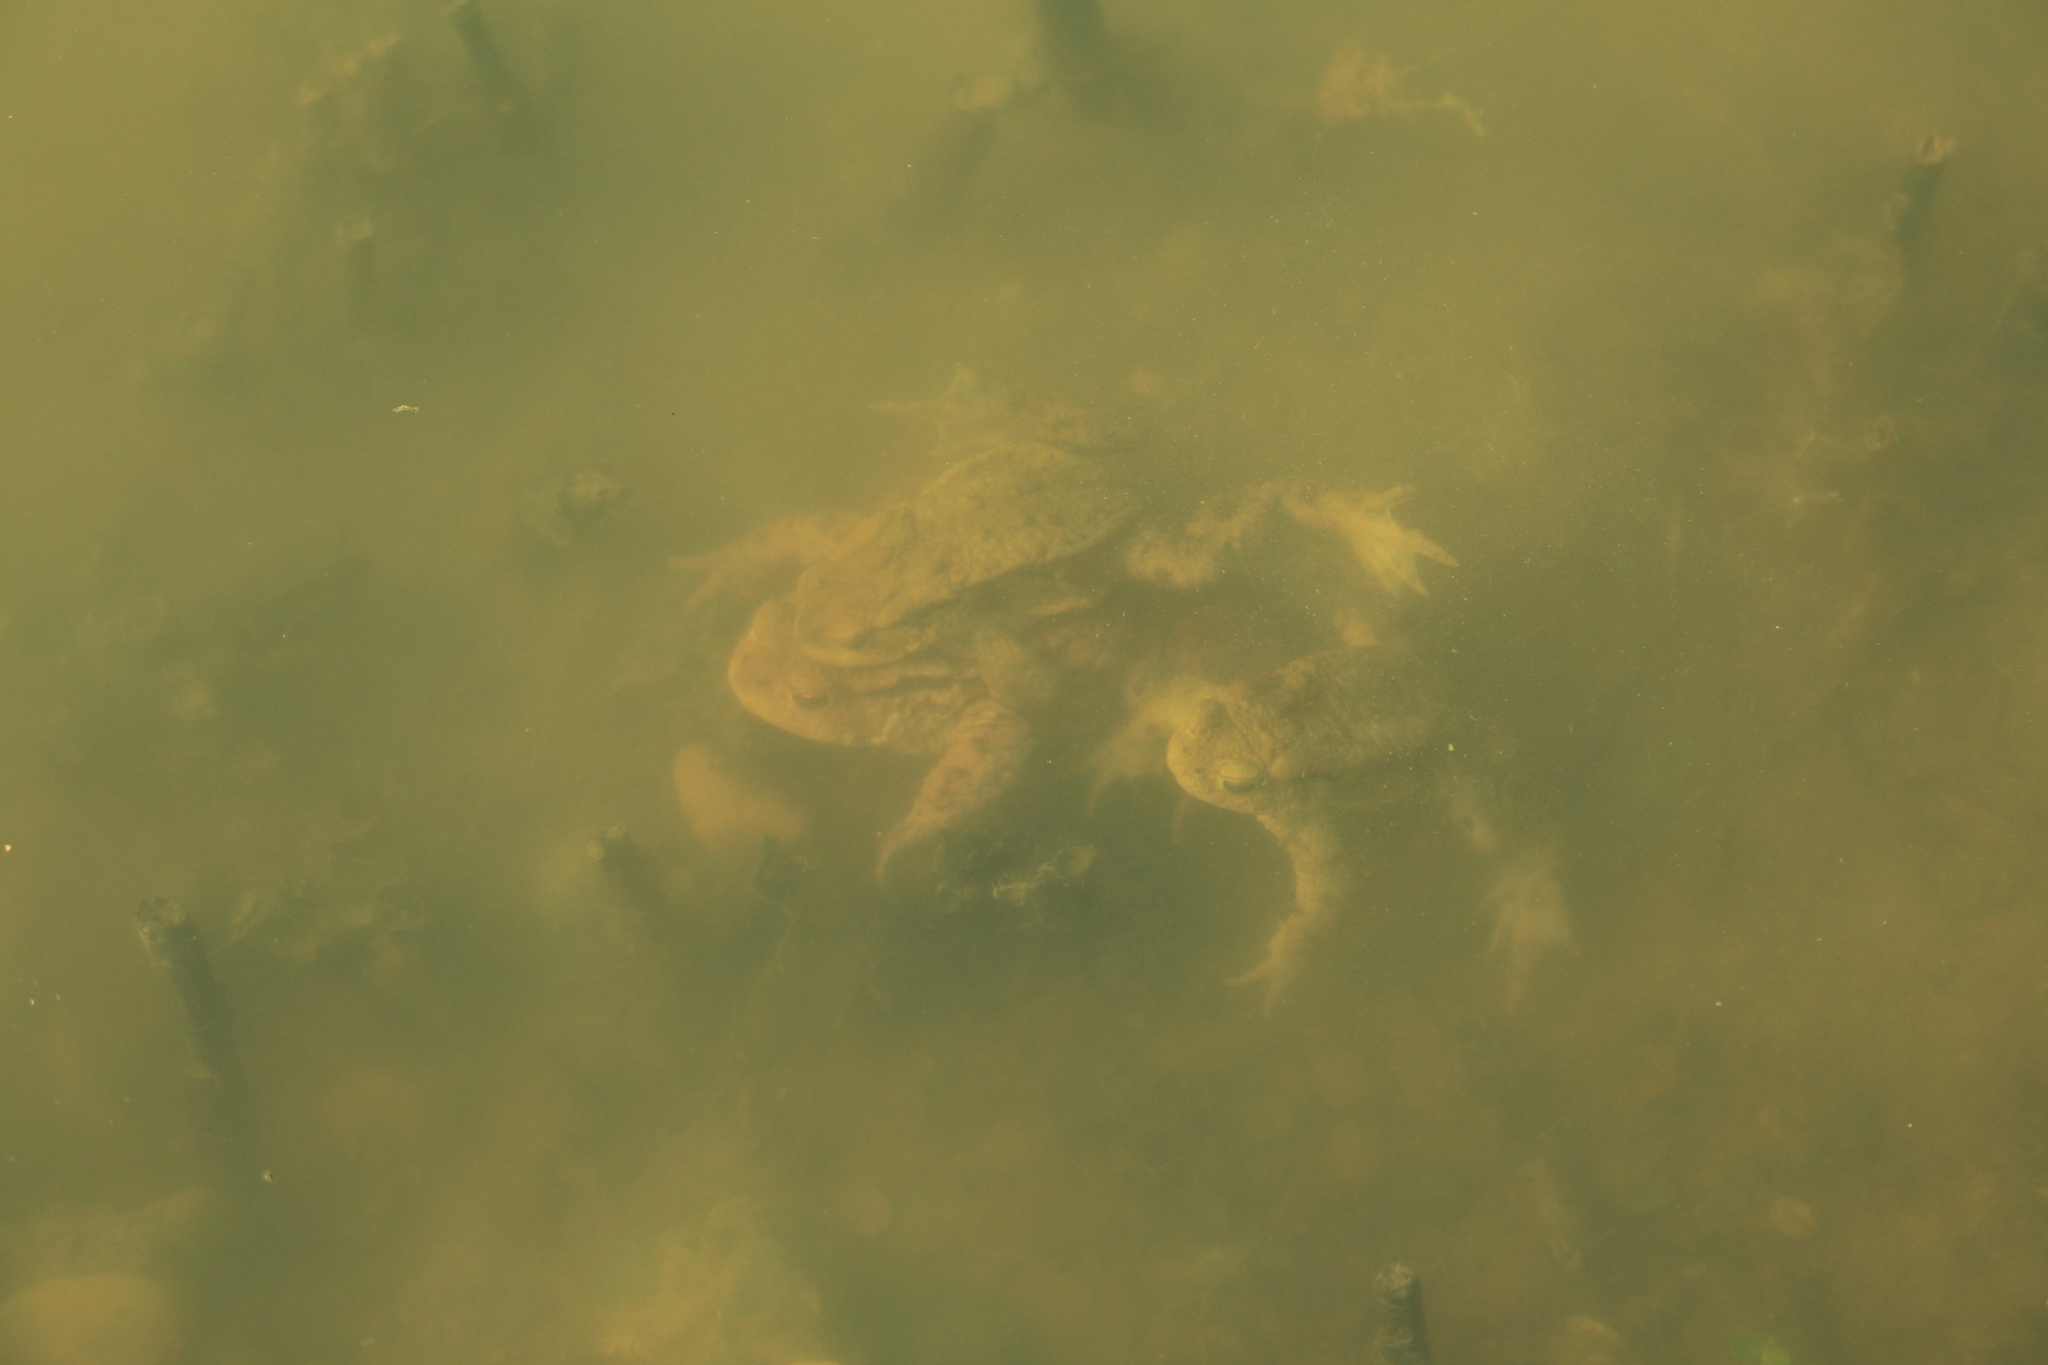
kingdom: Animalia
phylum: Chordata
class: Amphibia
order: Anura
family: Bufonidae
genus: Bufo
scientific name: Bufo bufo
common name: Common toad
